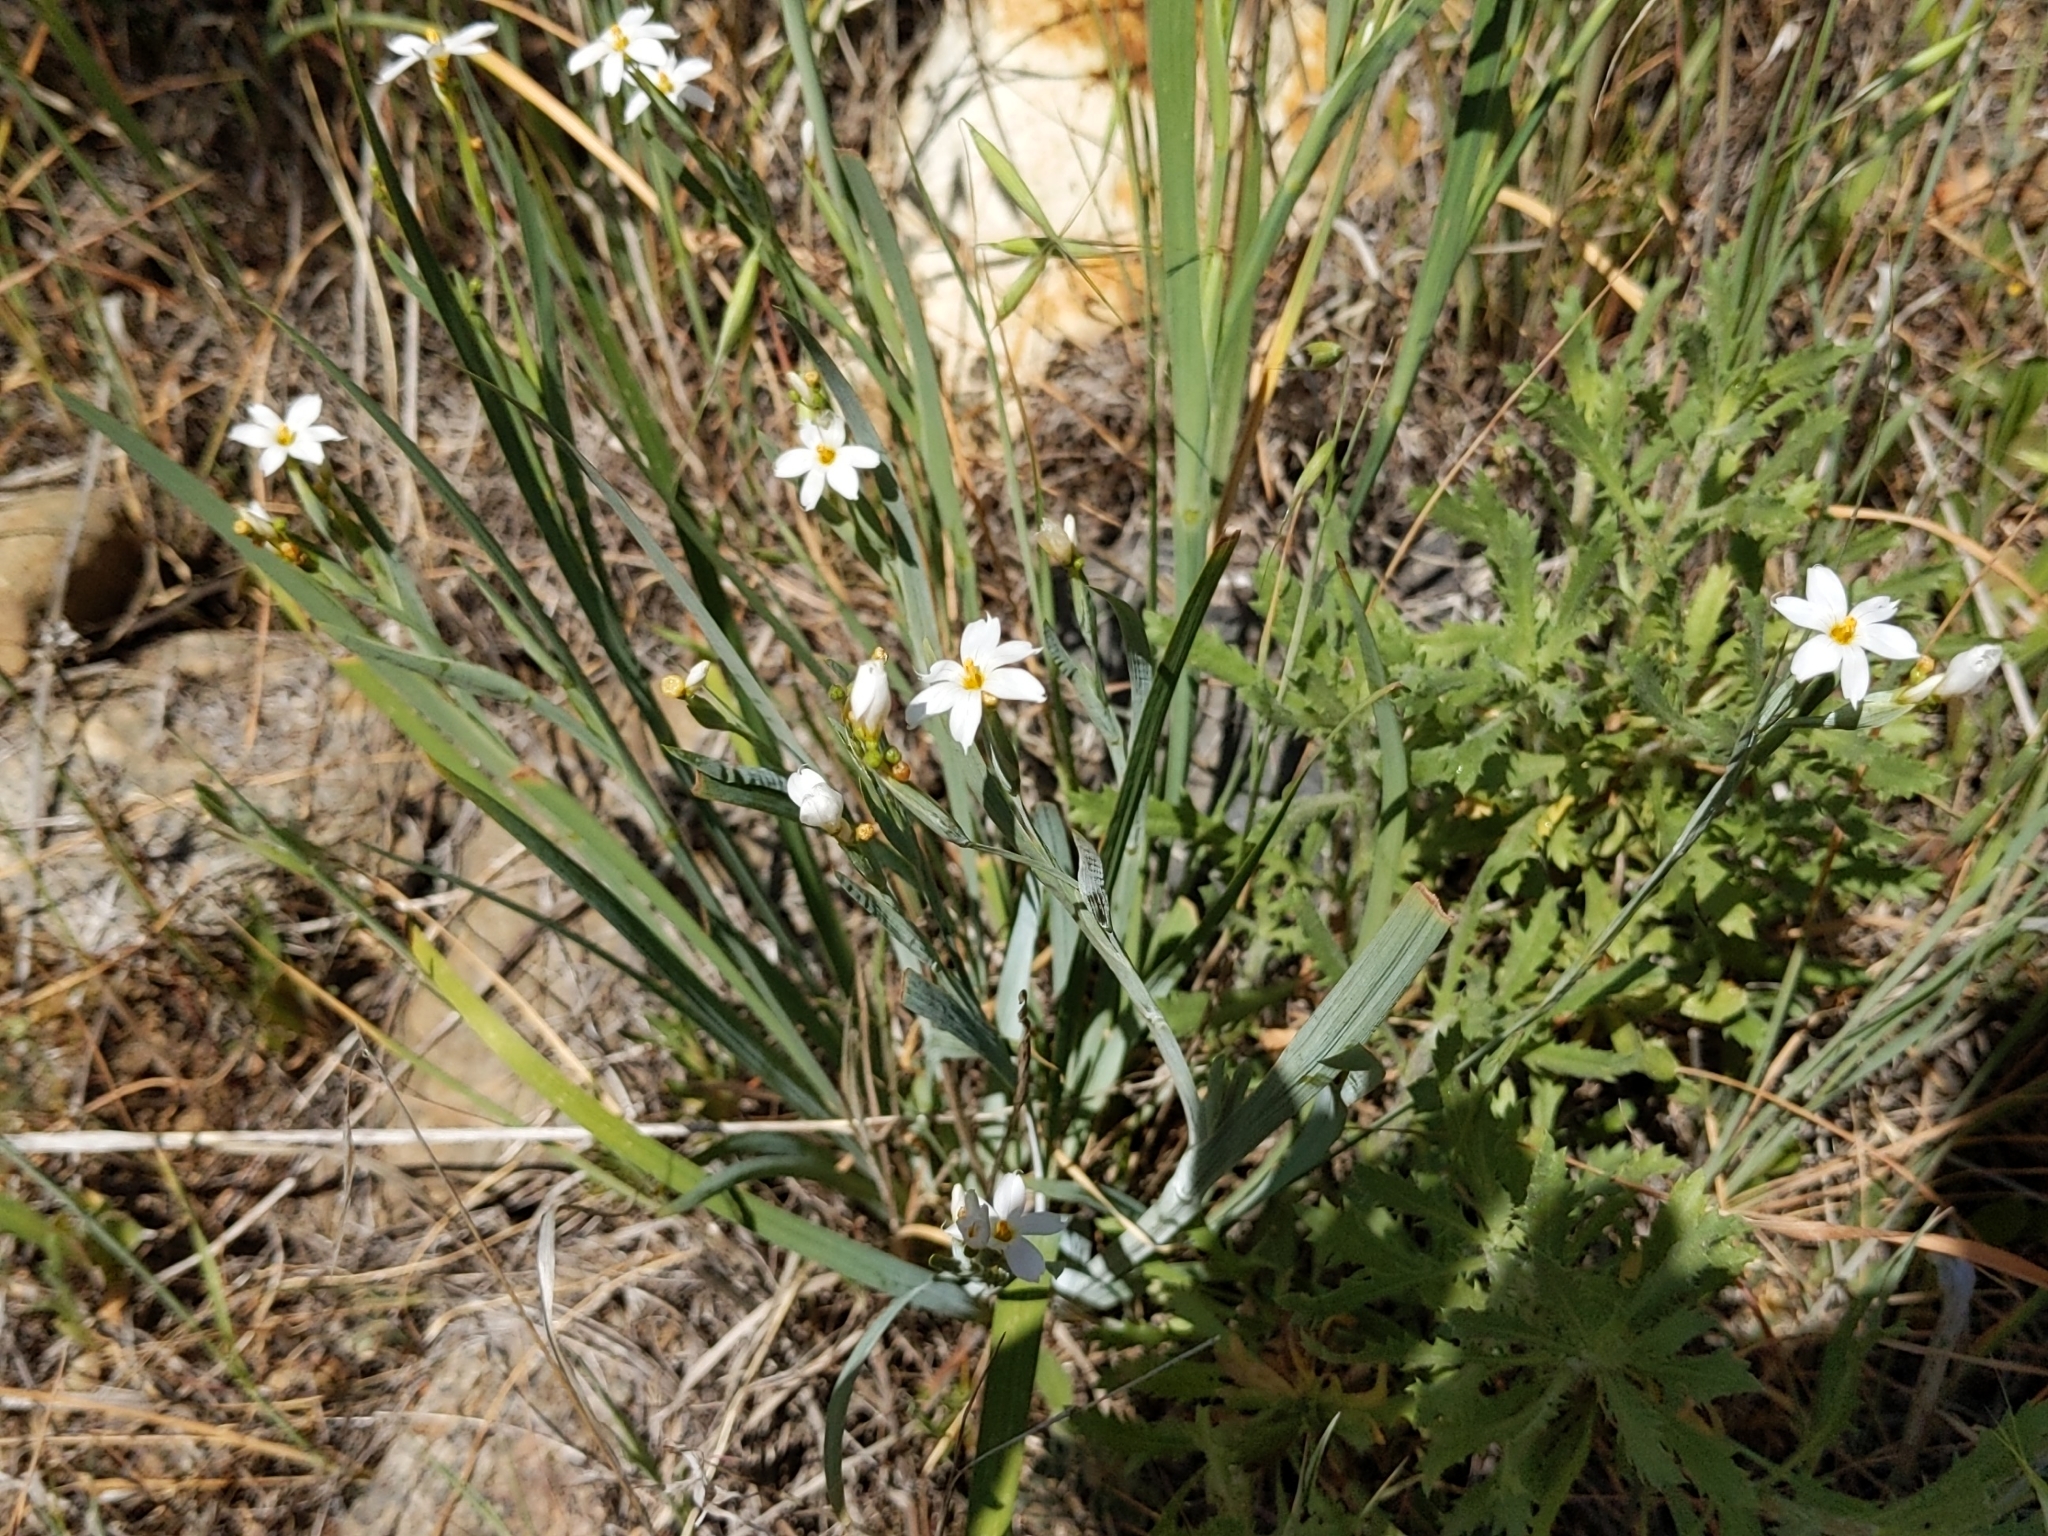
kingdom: Plantae
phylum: Tracheophyta
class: Liliopsida
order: Asparagales
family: Iridaceae
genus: Sisyrinchium
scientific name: Sisyrinchium bellum
